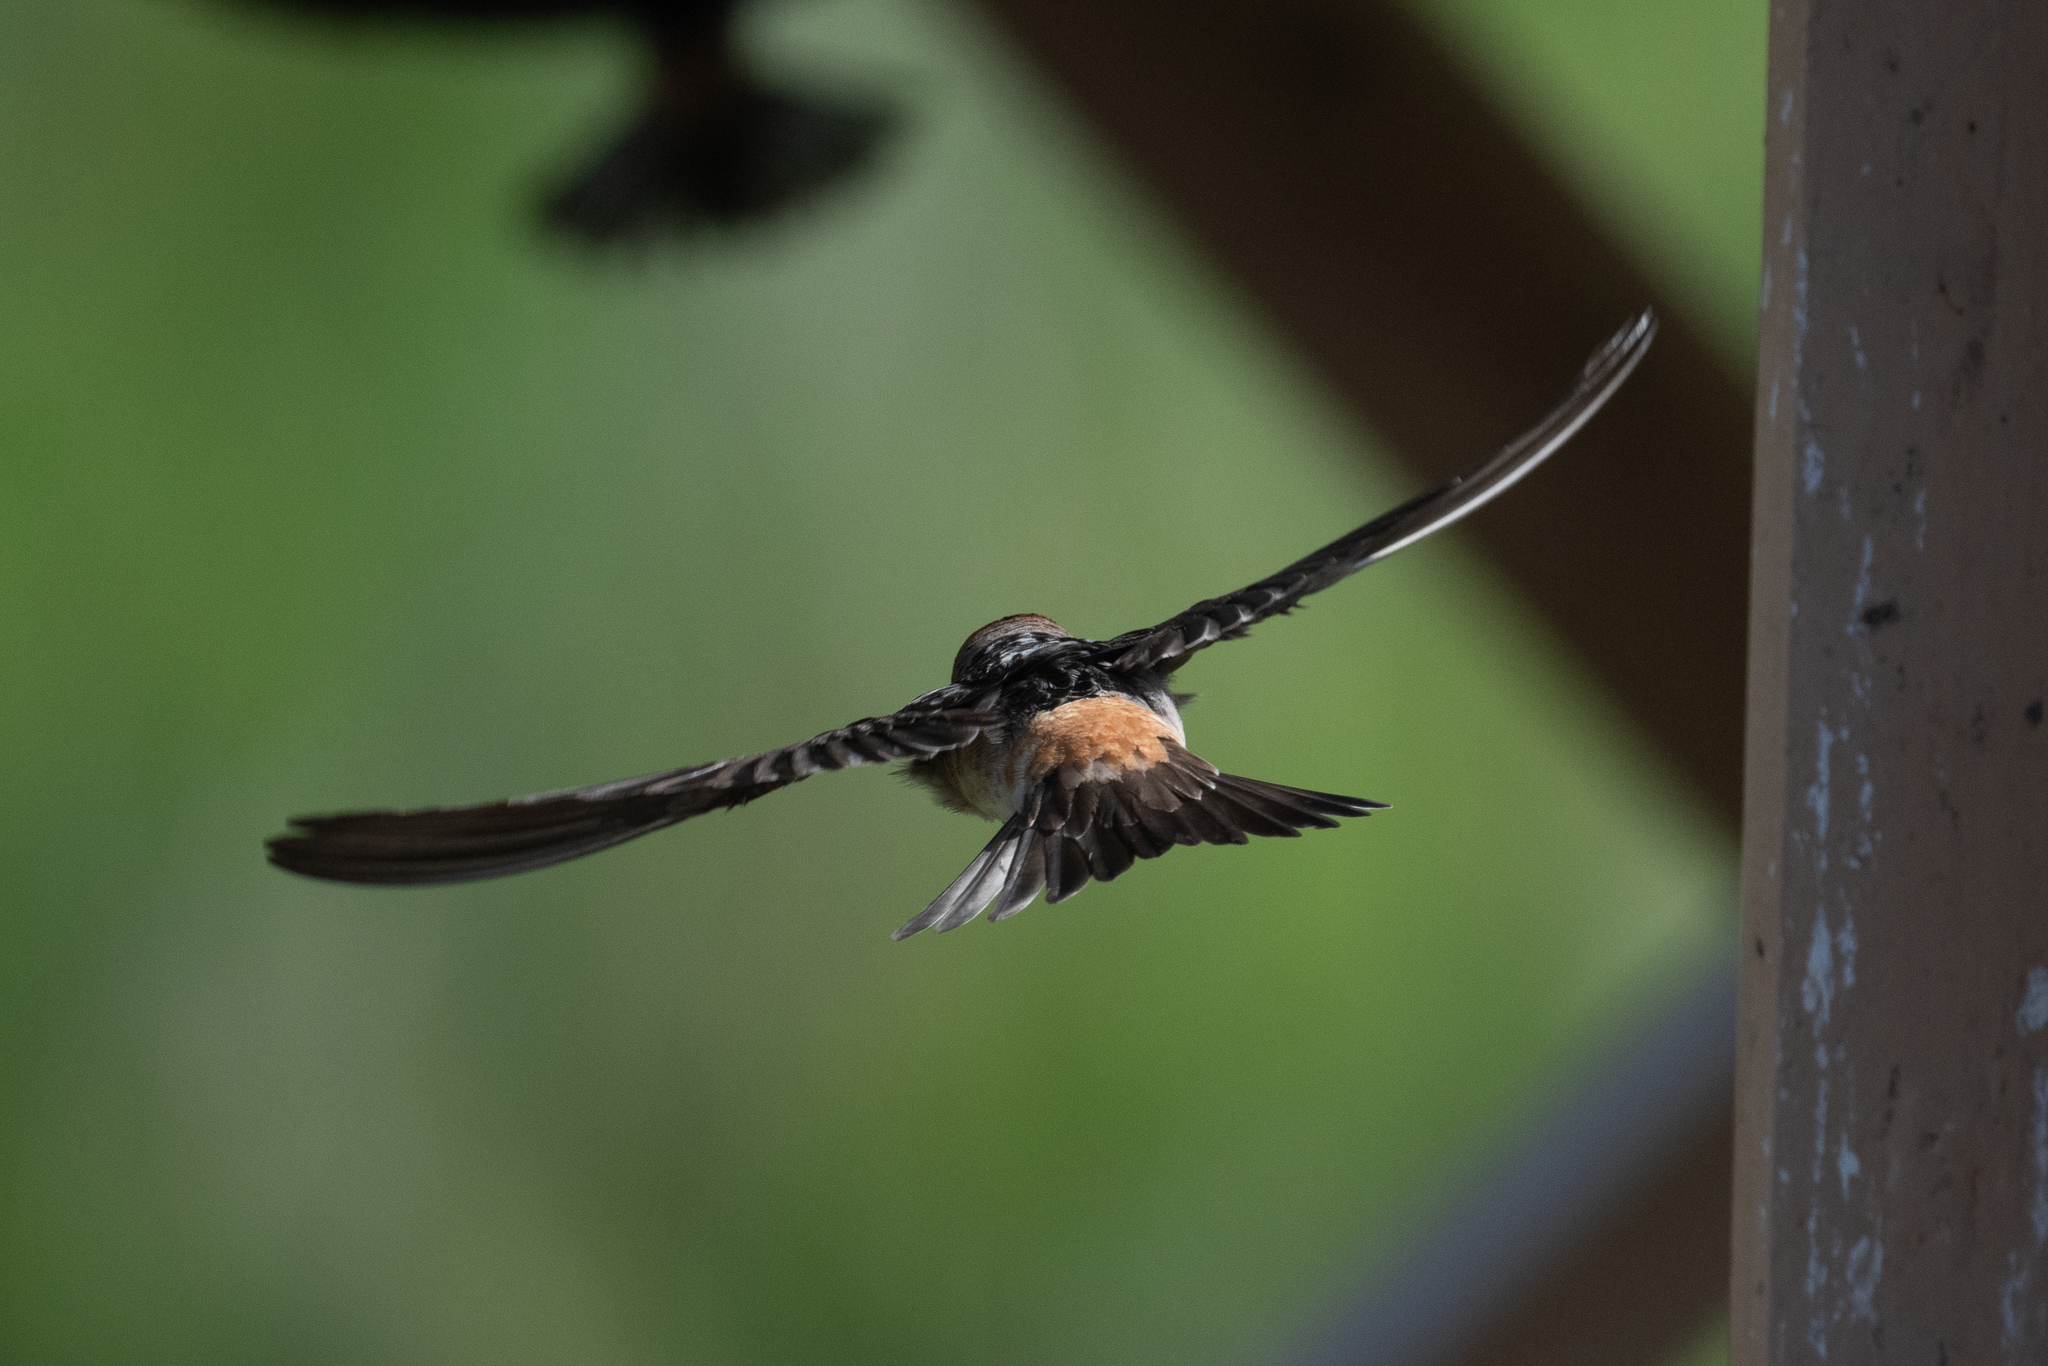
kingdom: Animalia
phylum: Chordata
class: Aves
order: Passeriformes
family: Hirundinidae
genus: Petrochelidon
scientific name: Petrochelidon pyrrhonota
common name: American cliff swallow
